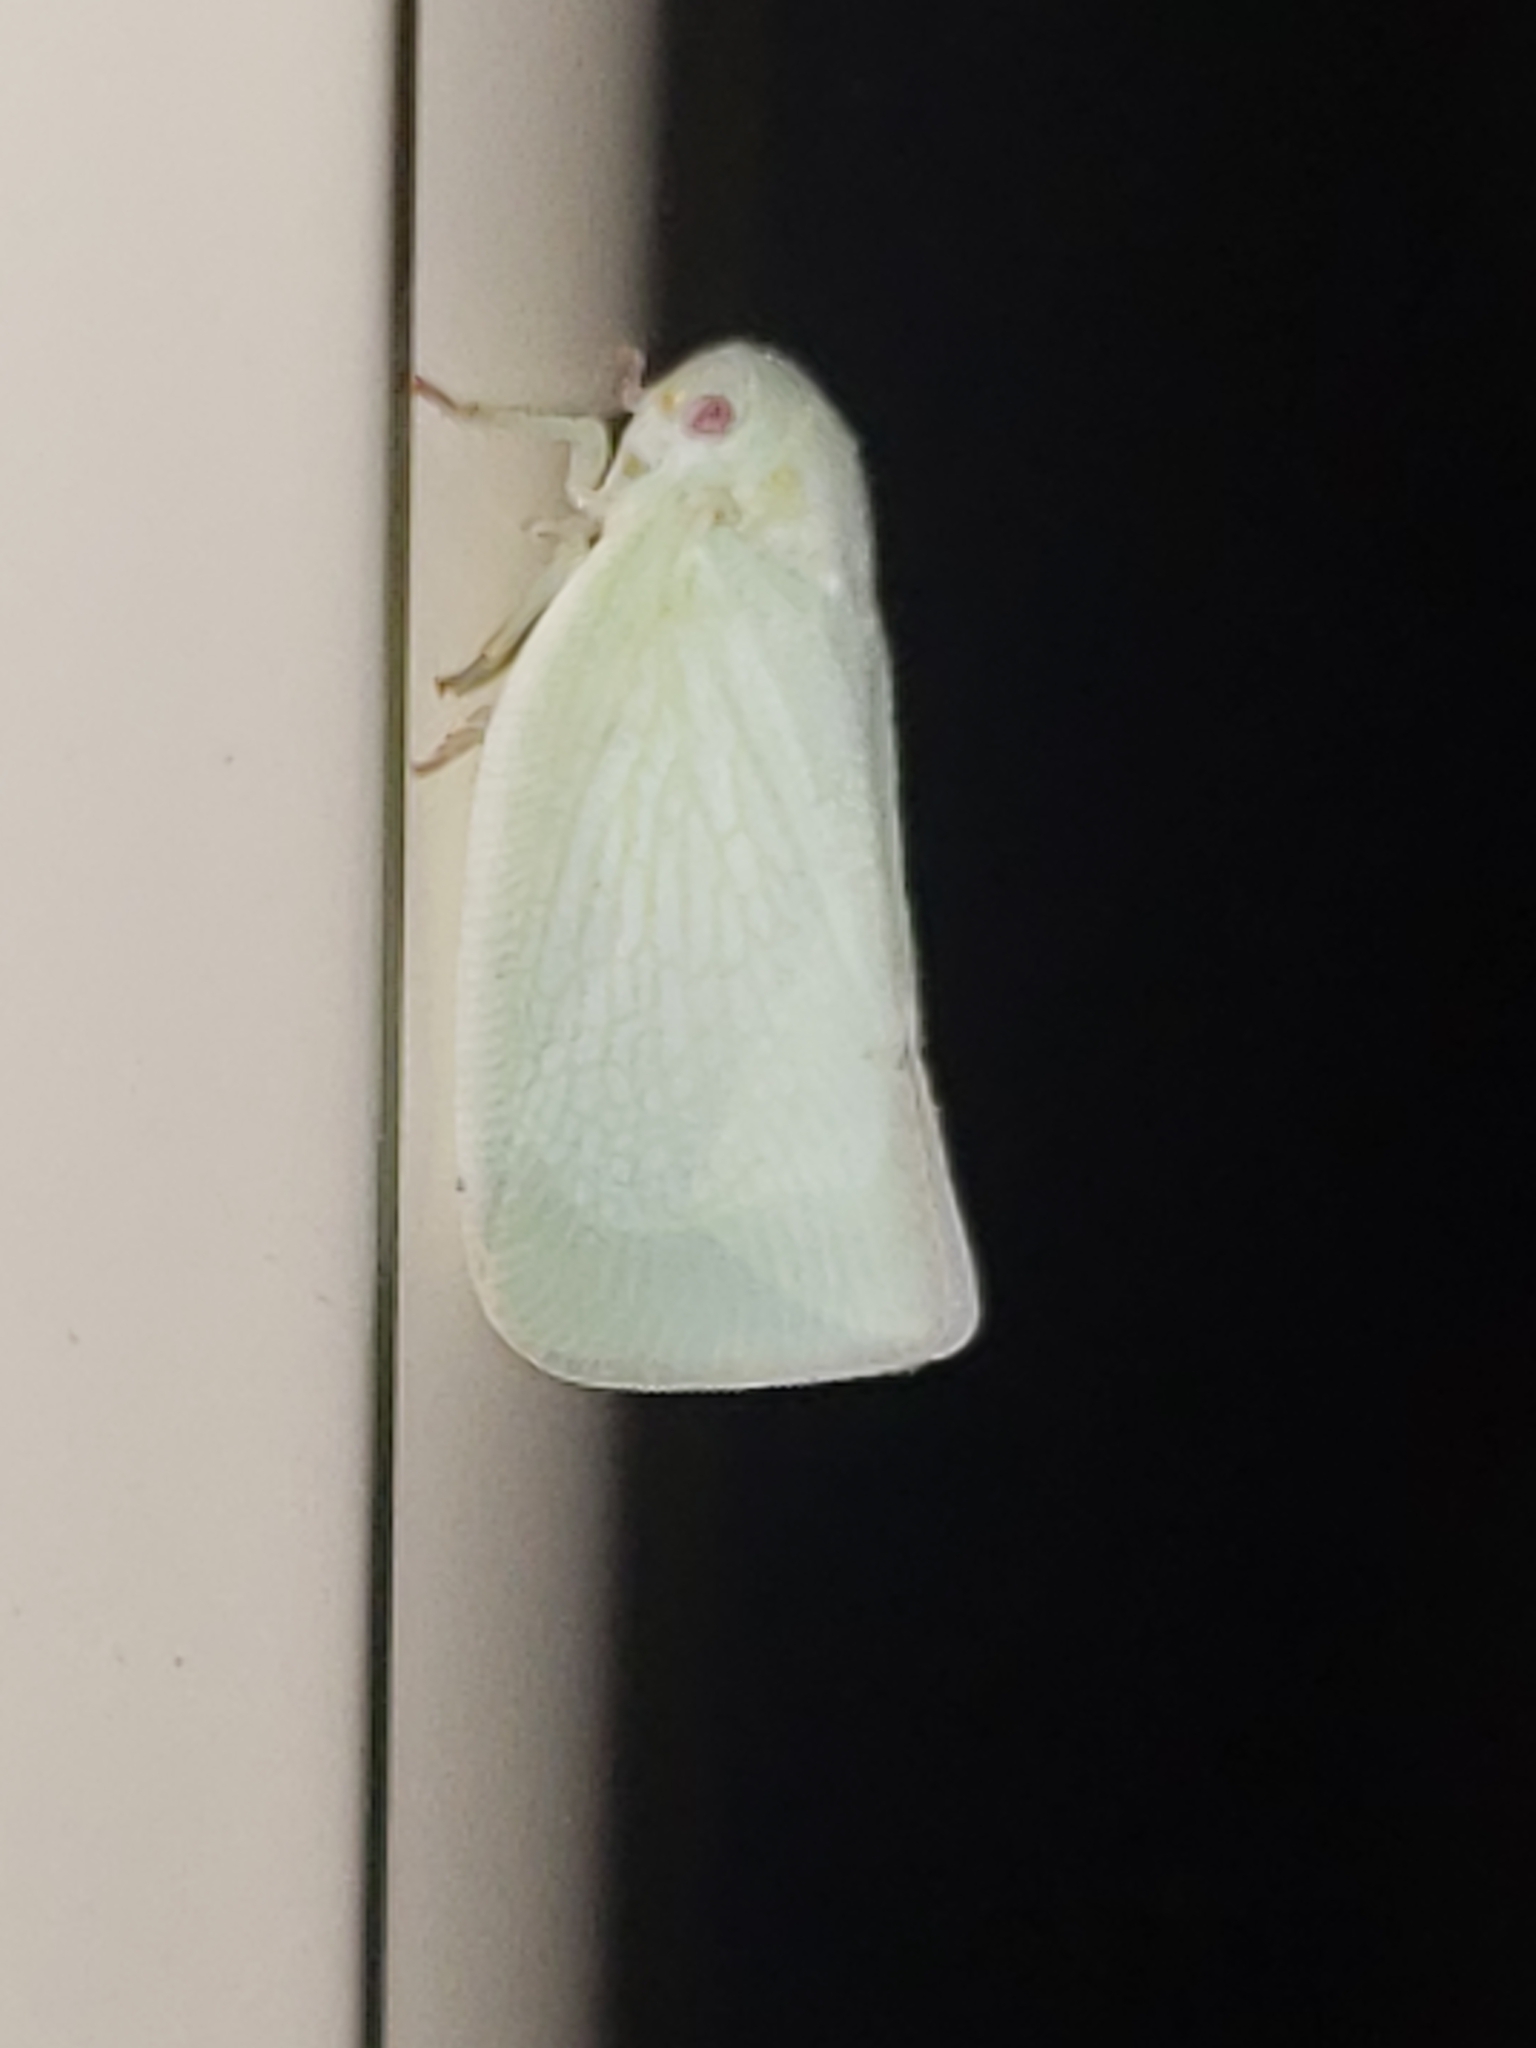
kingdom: Animalia
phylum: Arthropoda
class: Insecta
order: Hemiptera
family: Flatidae
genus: Flatormenis
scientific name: Flatormenis proxima
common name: Northern flatid planthopper
